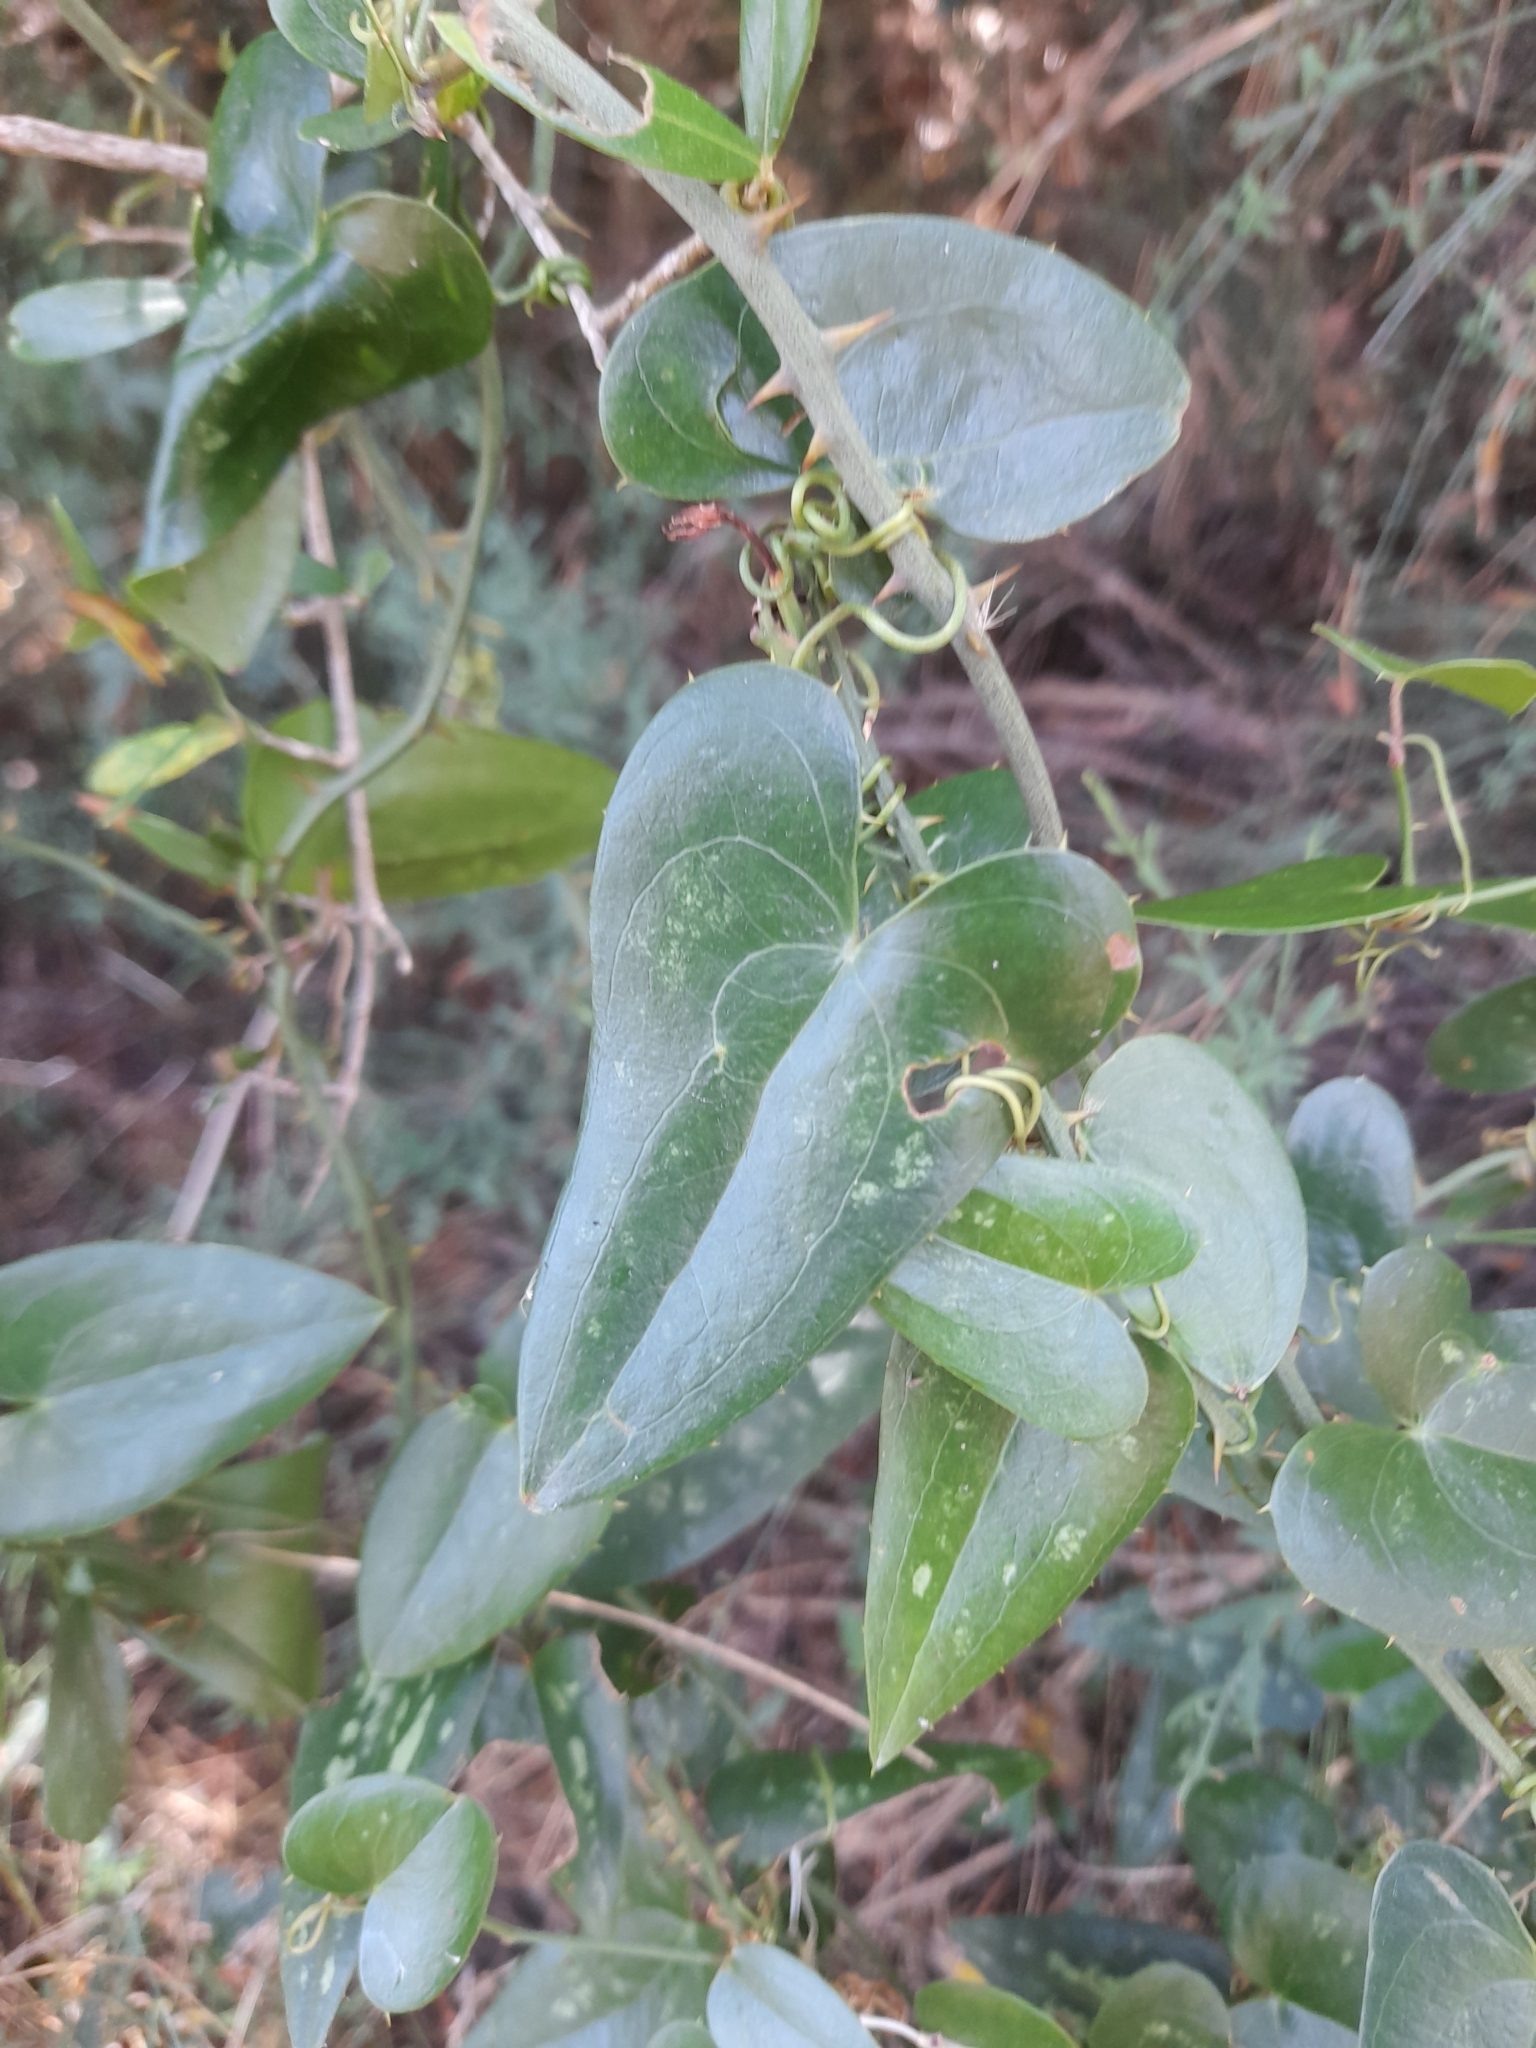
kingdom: Plantae
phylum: Tracheophyta
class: Liliopsida
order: Liliales
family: Smilacaceae
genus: Smilax
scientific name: Smilax aspera
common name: Common smilax
